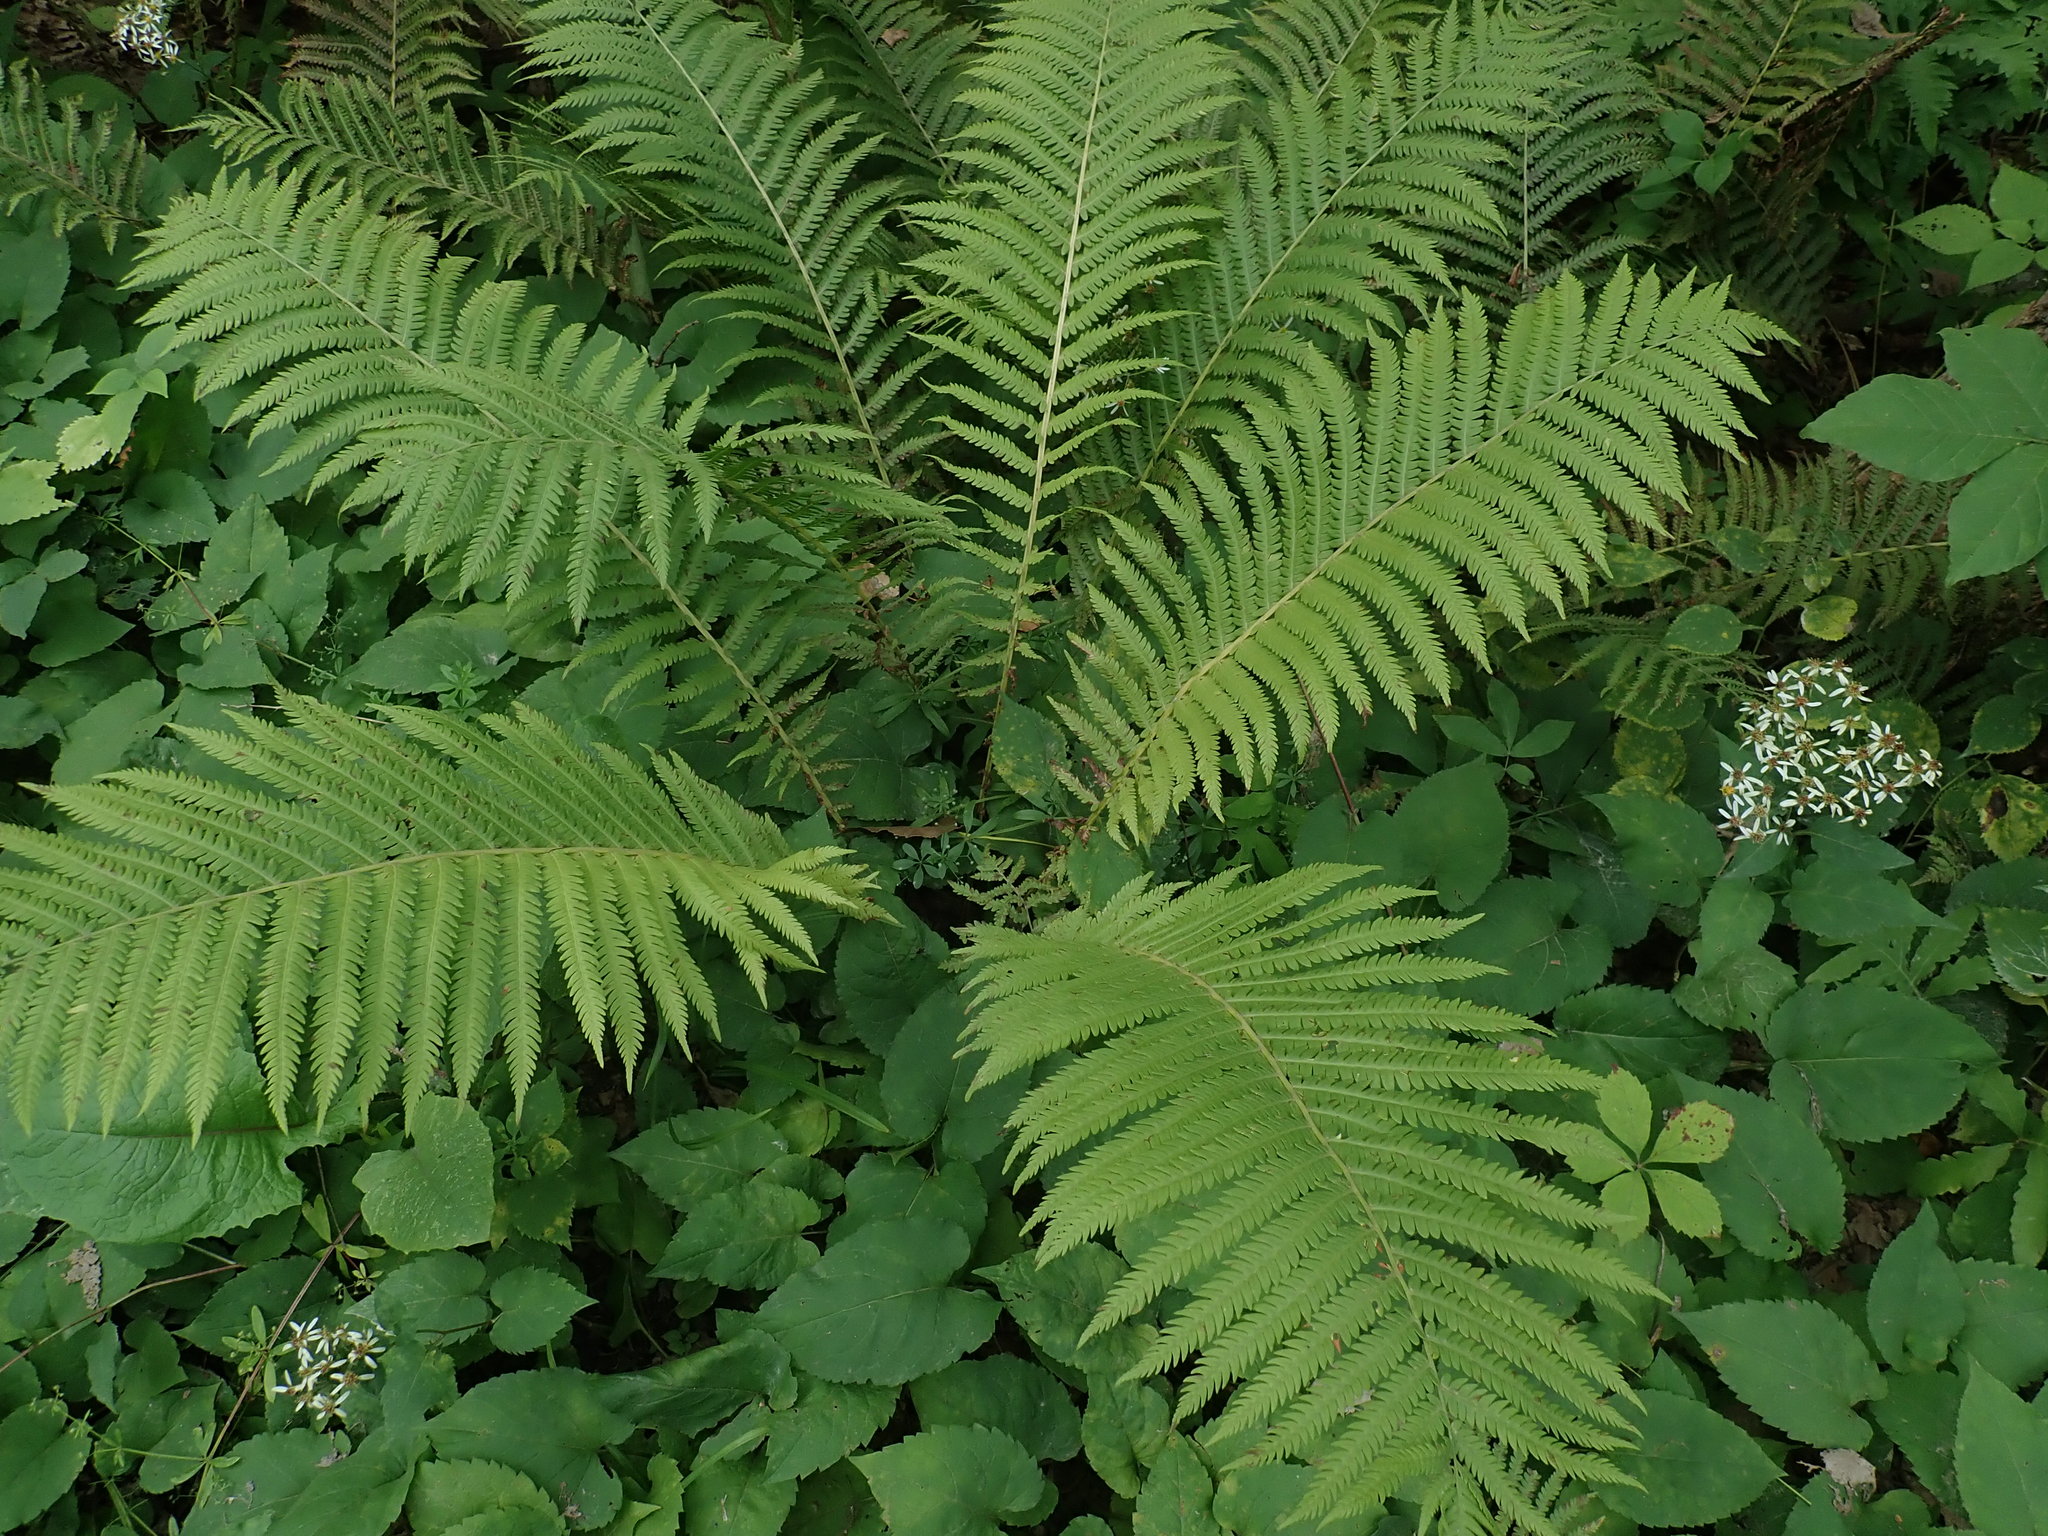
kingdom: Plantae
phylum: Tracheophyta
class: Polypodiopsida
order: Polypodiales
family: Onocleaceae
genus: Matteuccia
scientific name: Matteuccia struthiopteris
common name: Ostrich fern
